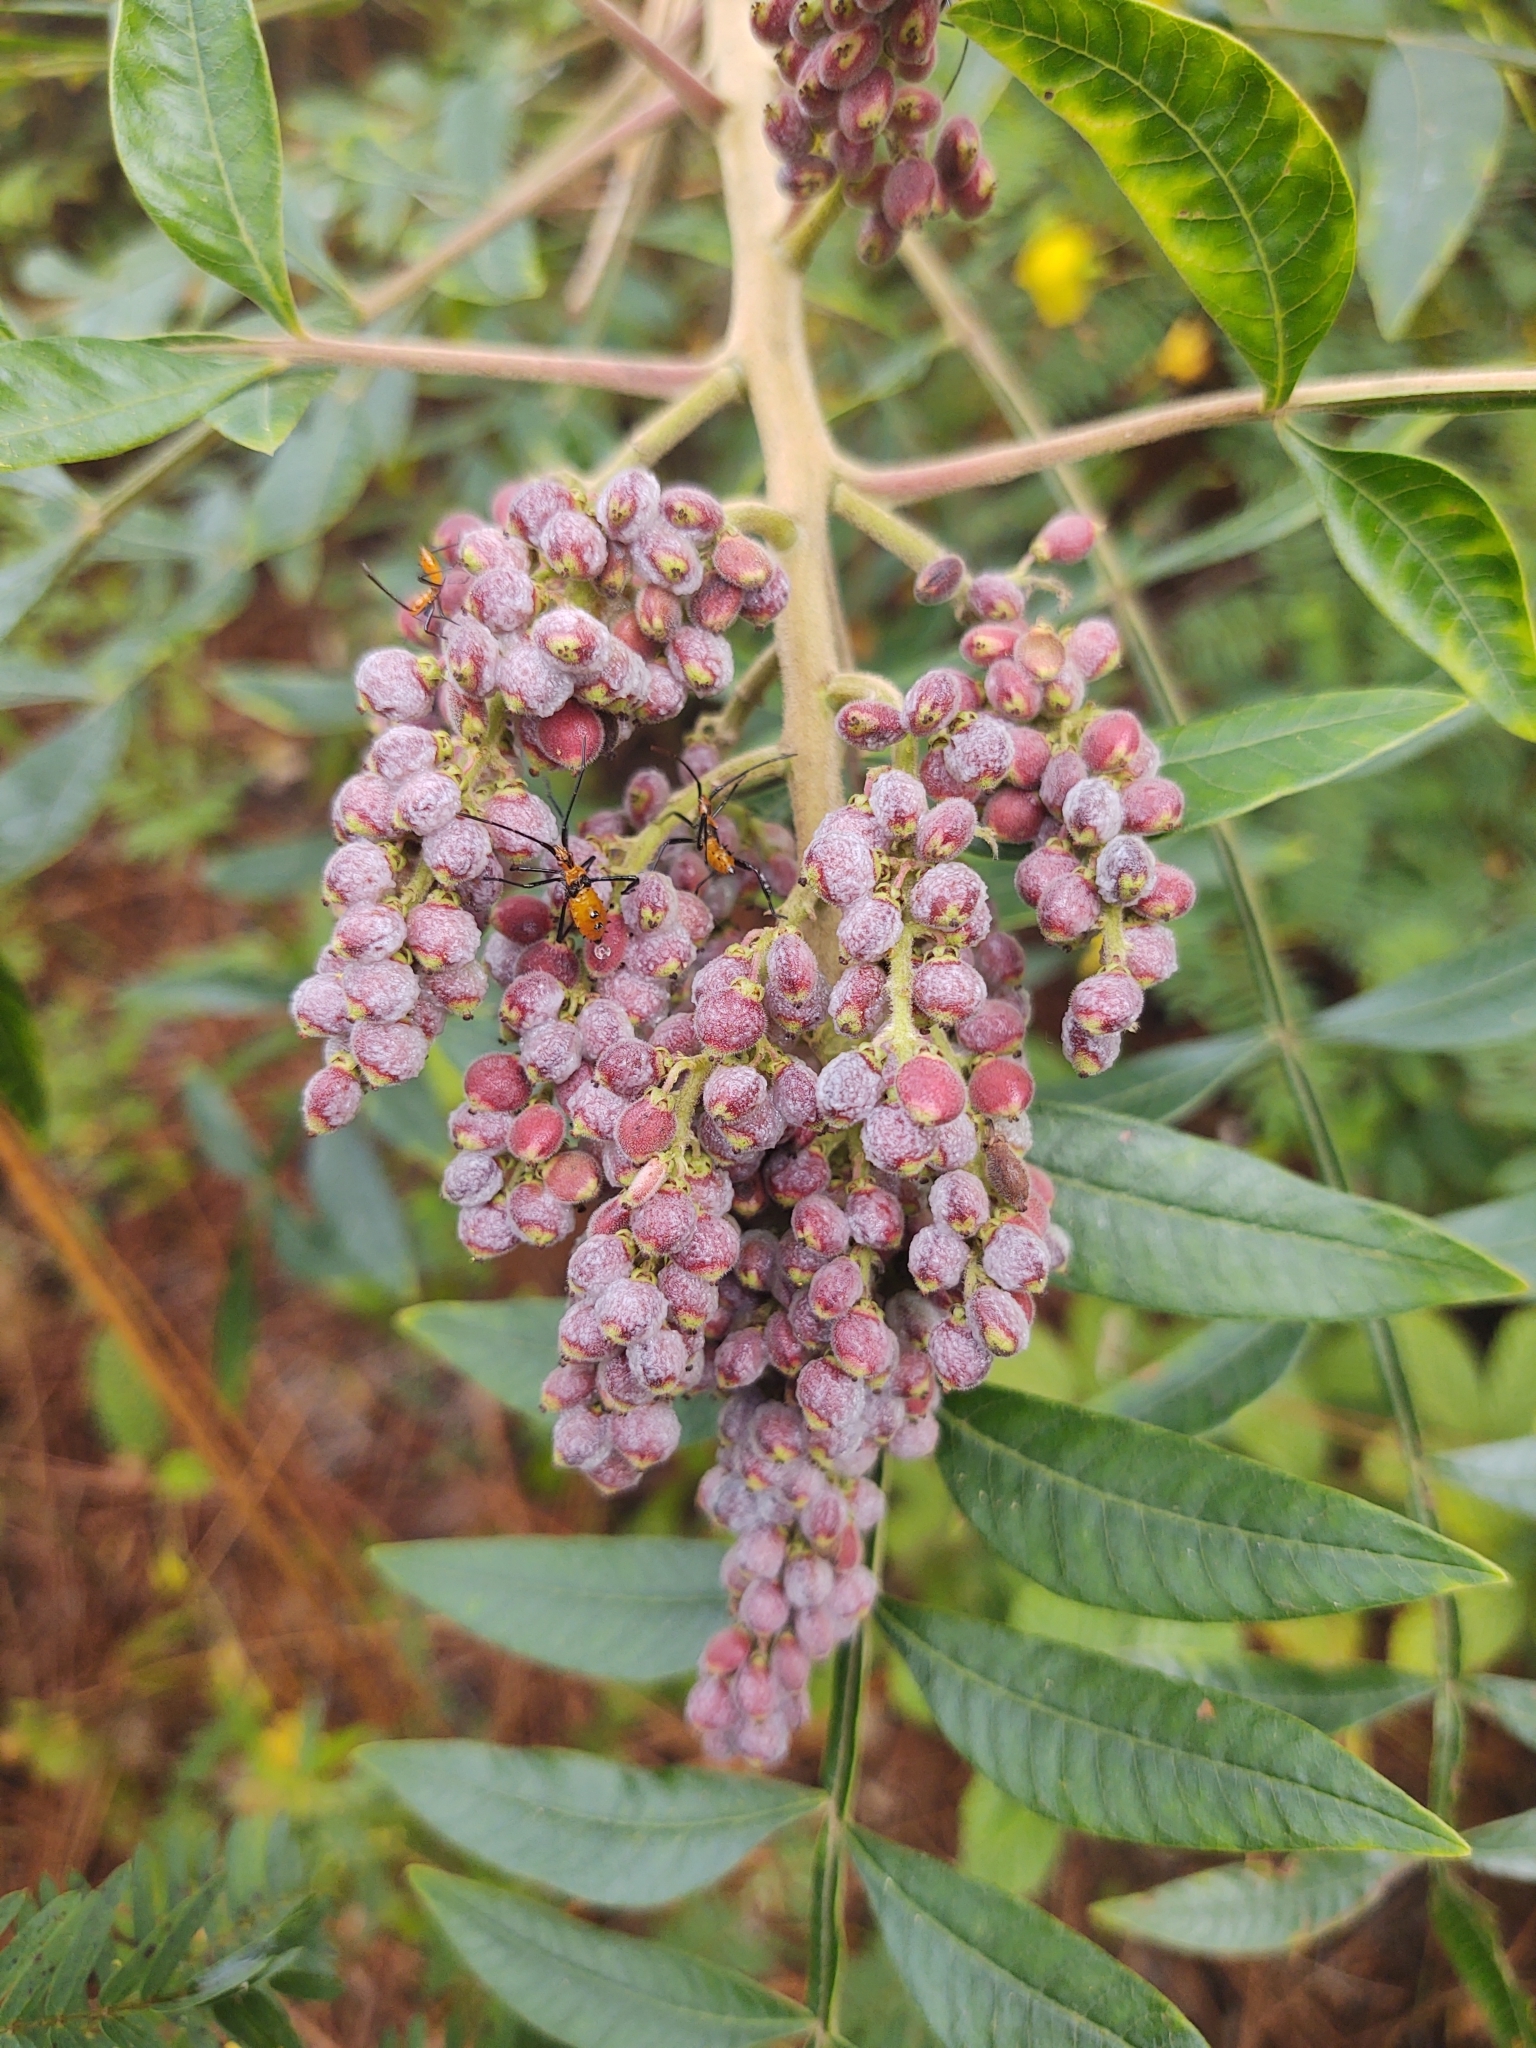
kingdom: Plantae
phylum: Tracheophyta
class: Magnoliopsida
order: Sapindales
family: Anacardiaceae
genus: Rhus
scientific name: Rhus copallina
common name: Shining sumac
